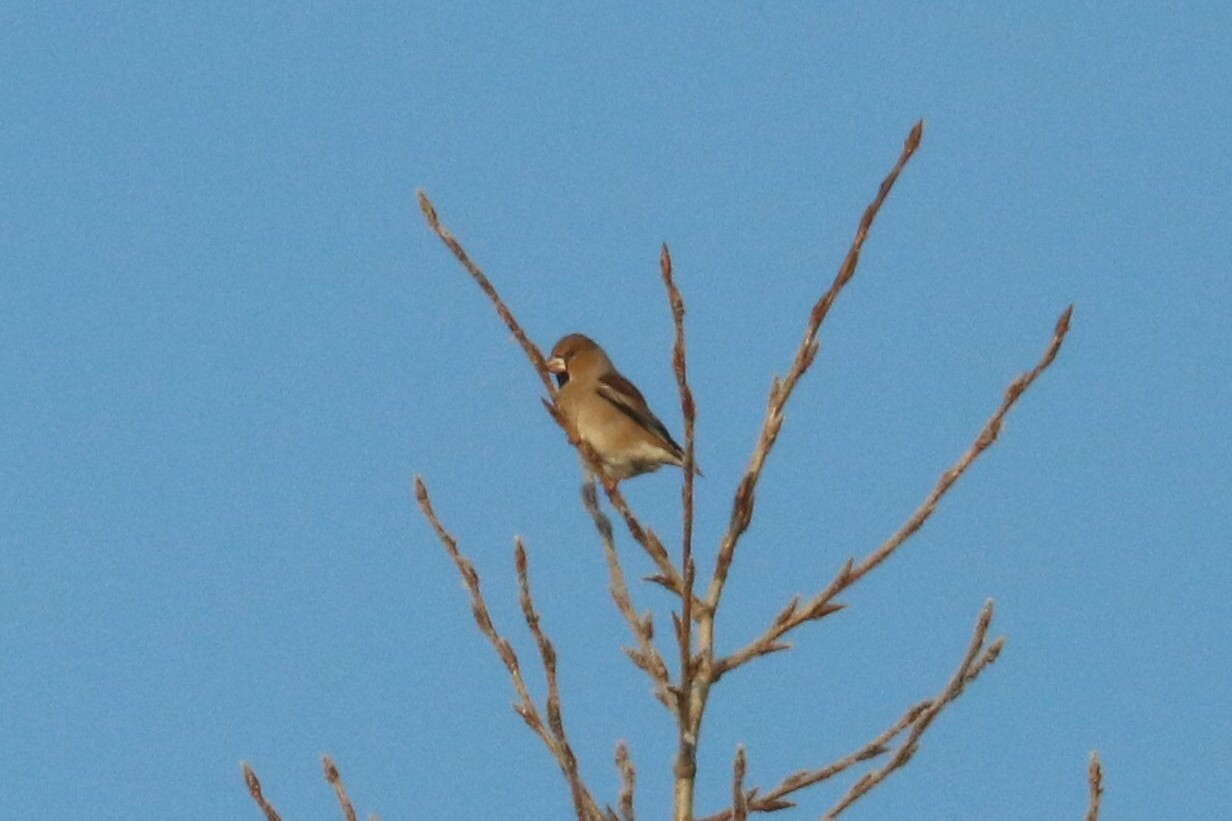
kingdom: Animalia
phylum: Chordata
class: Aves
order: Passeriformes
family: Fringillidae
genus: Coccothraustes
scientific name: Coccothraustes coccothraustes
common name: Hawfinch
